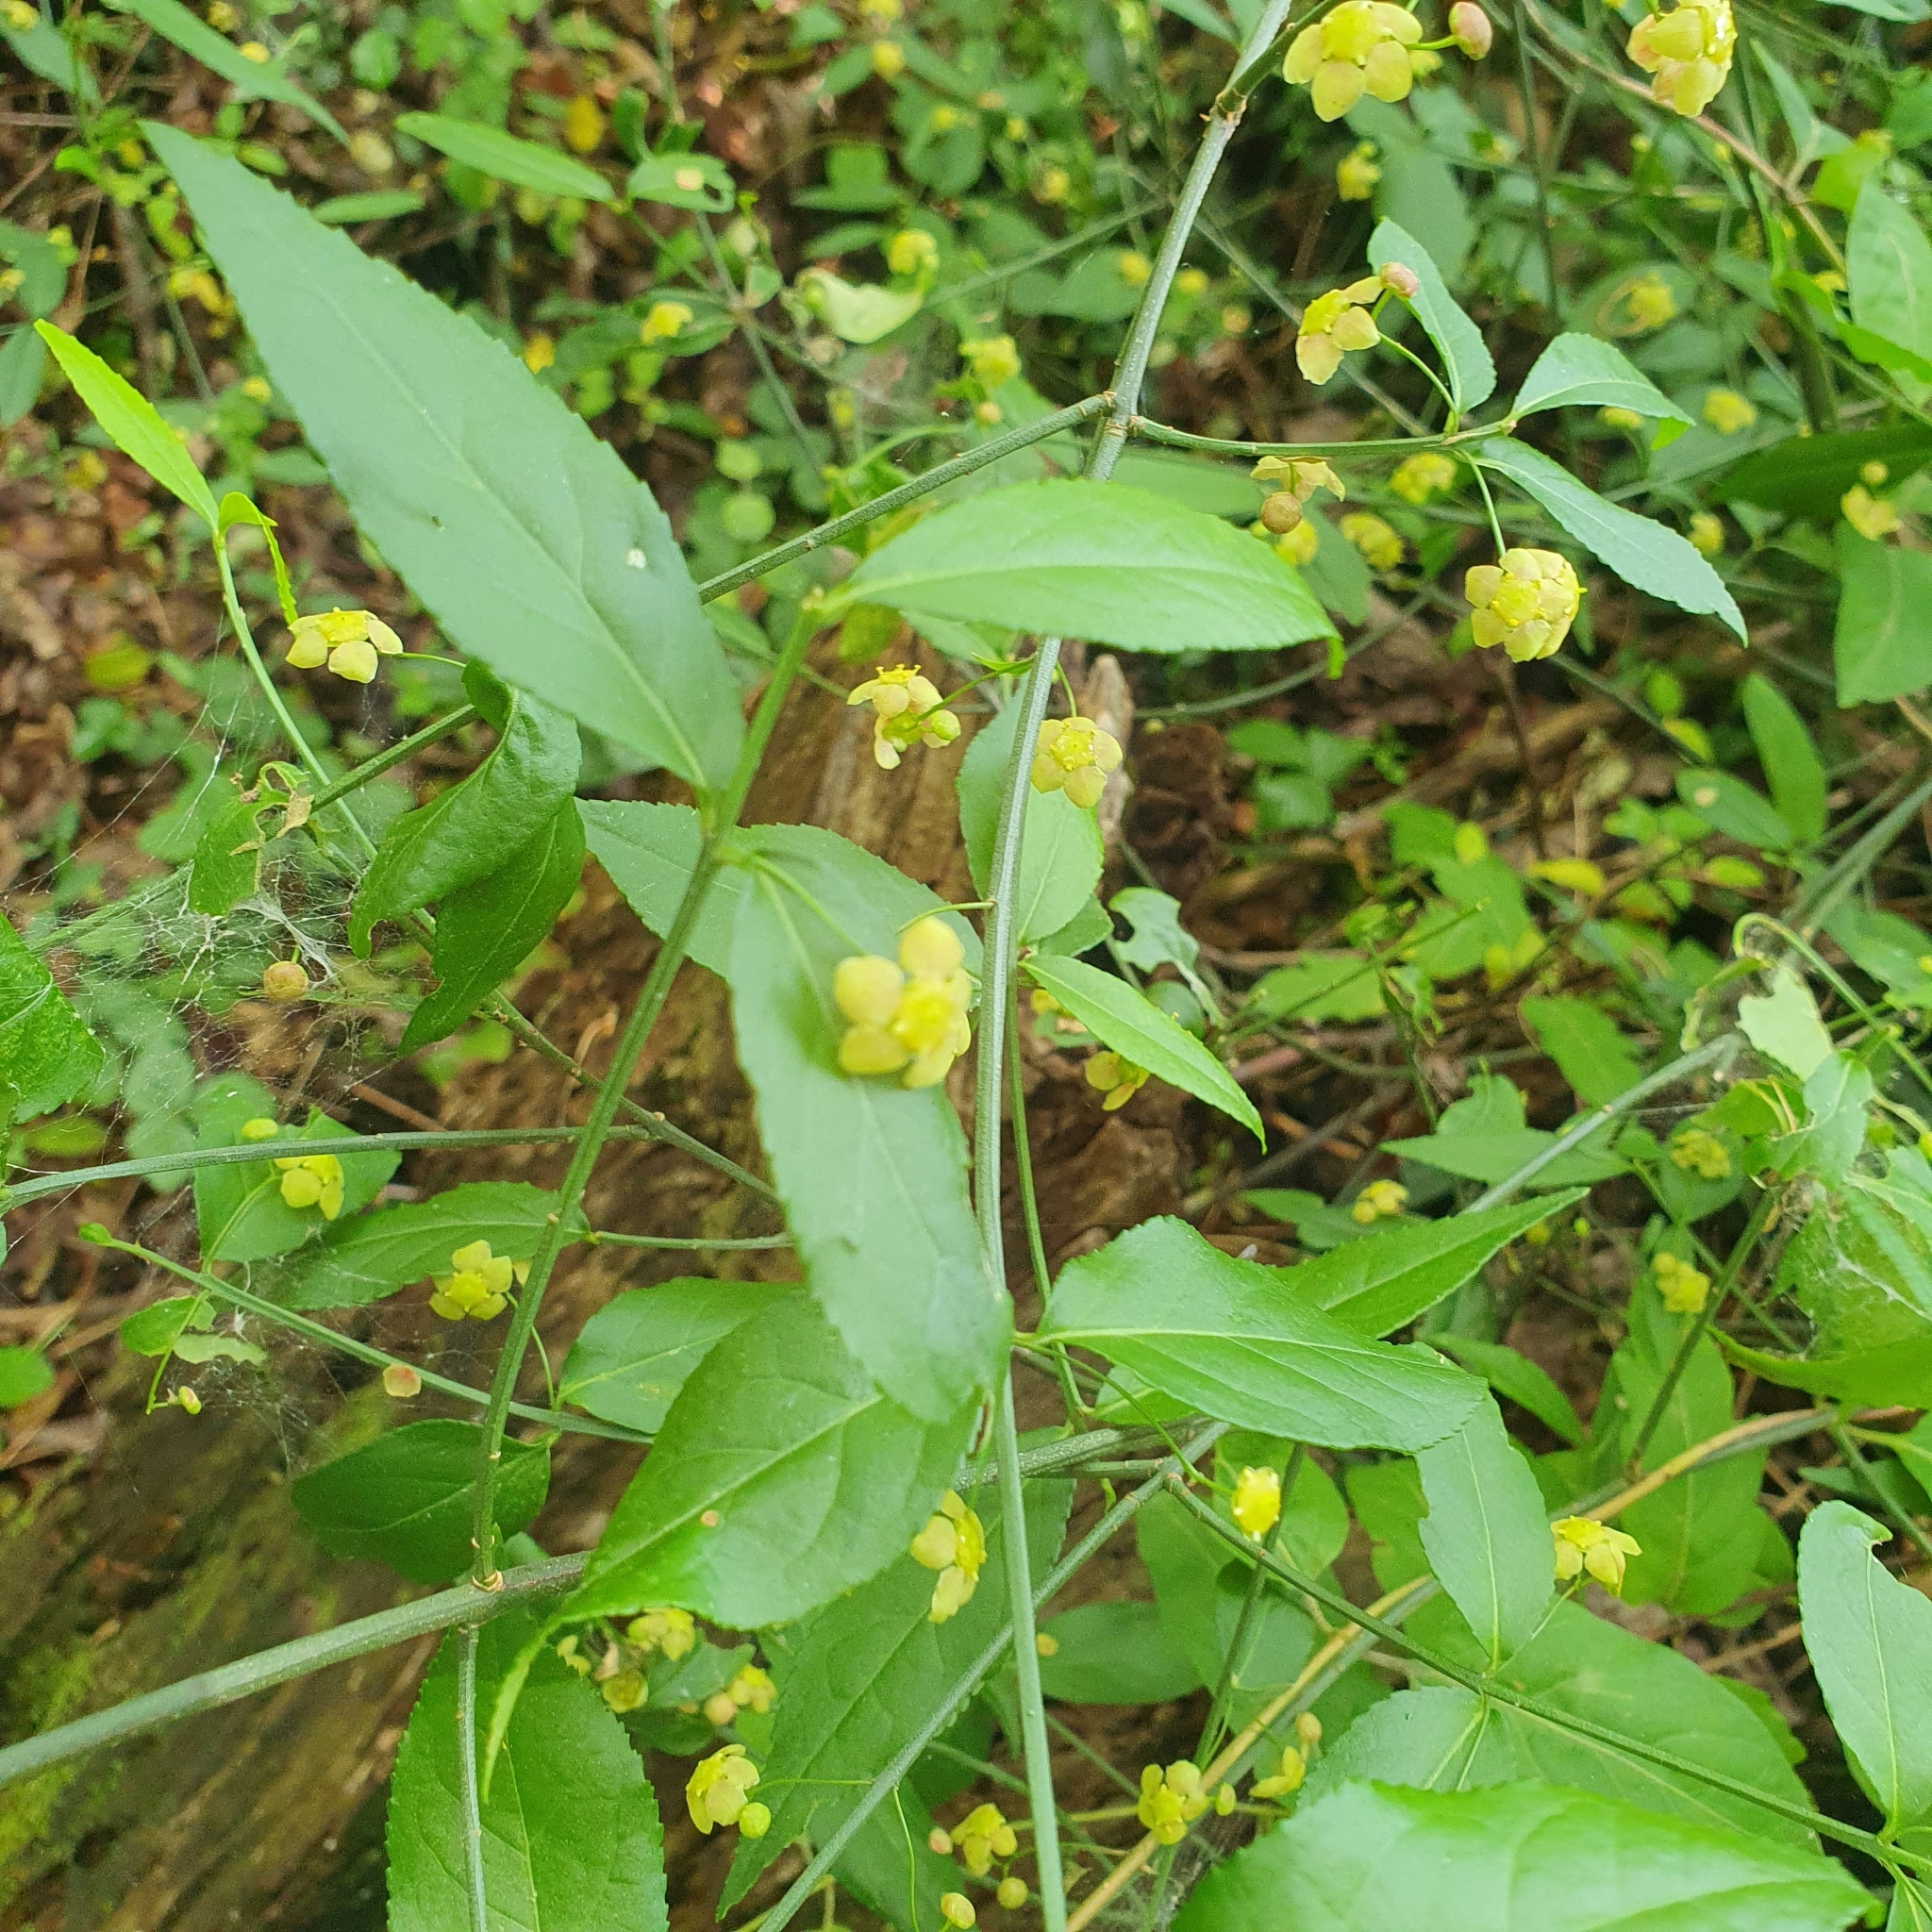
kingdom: Plantae
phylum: Tracheophyta
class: Magnoliopsida
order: Celastrales
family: Celastraceae
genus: Euonymus
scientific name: Euonymus americanus
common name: Bursting-heart
